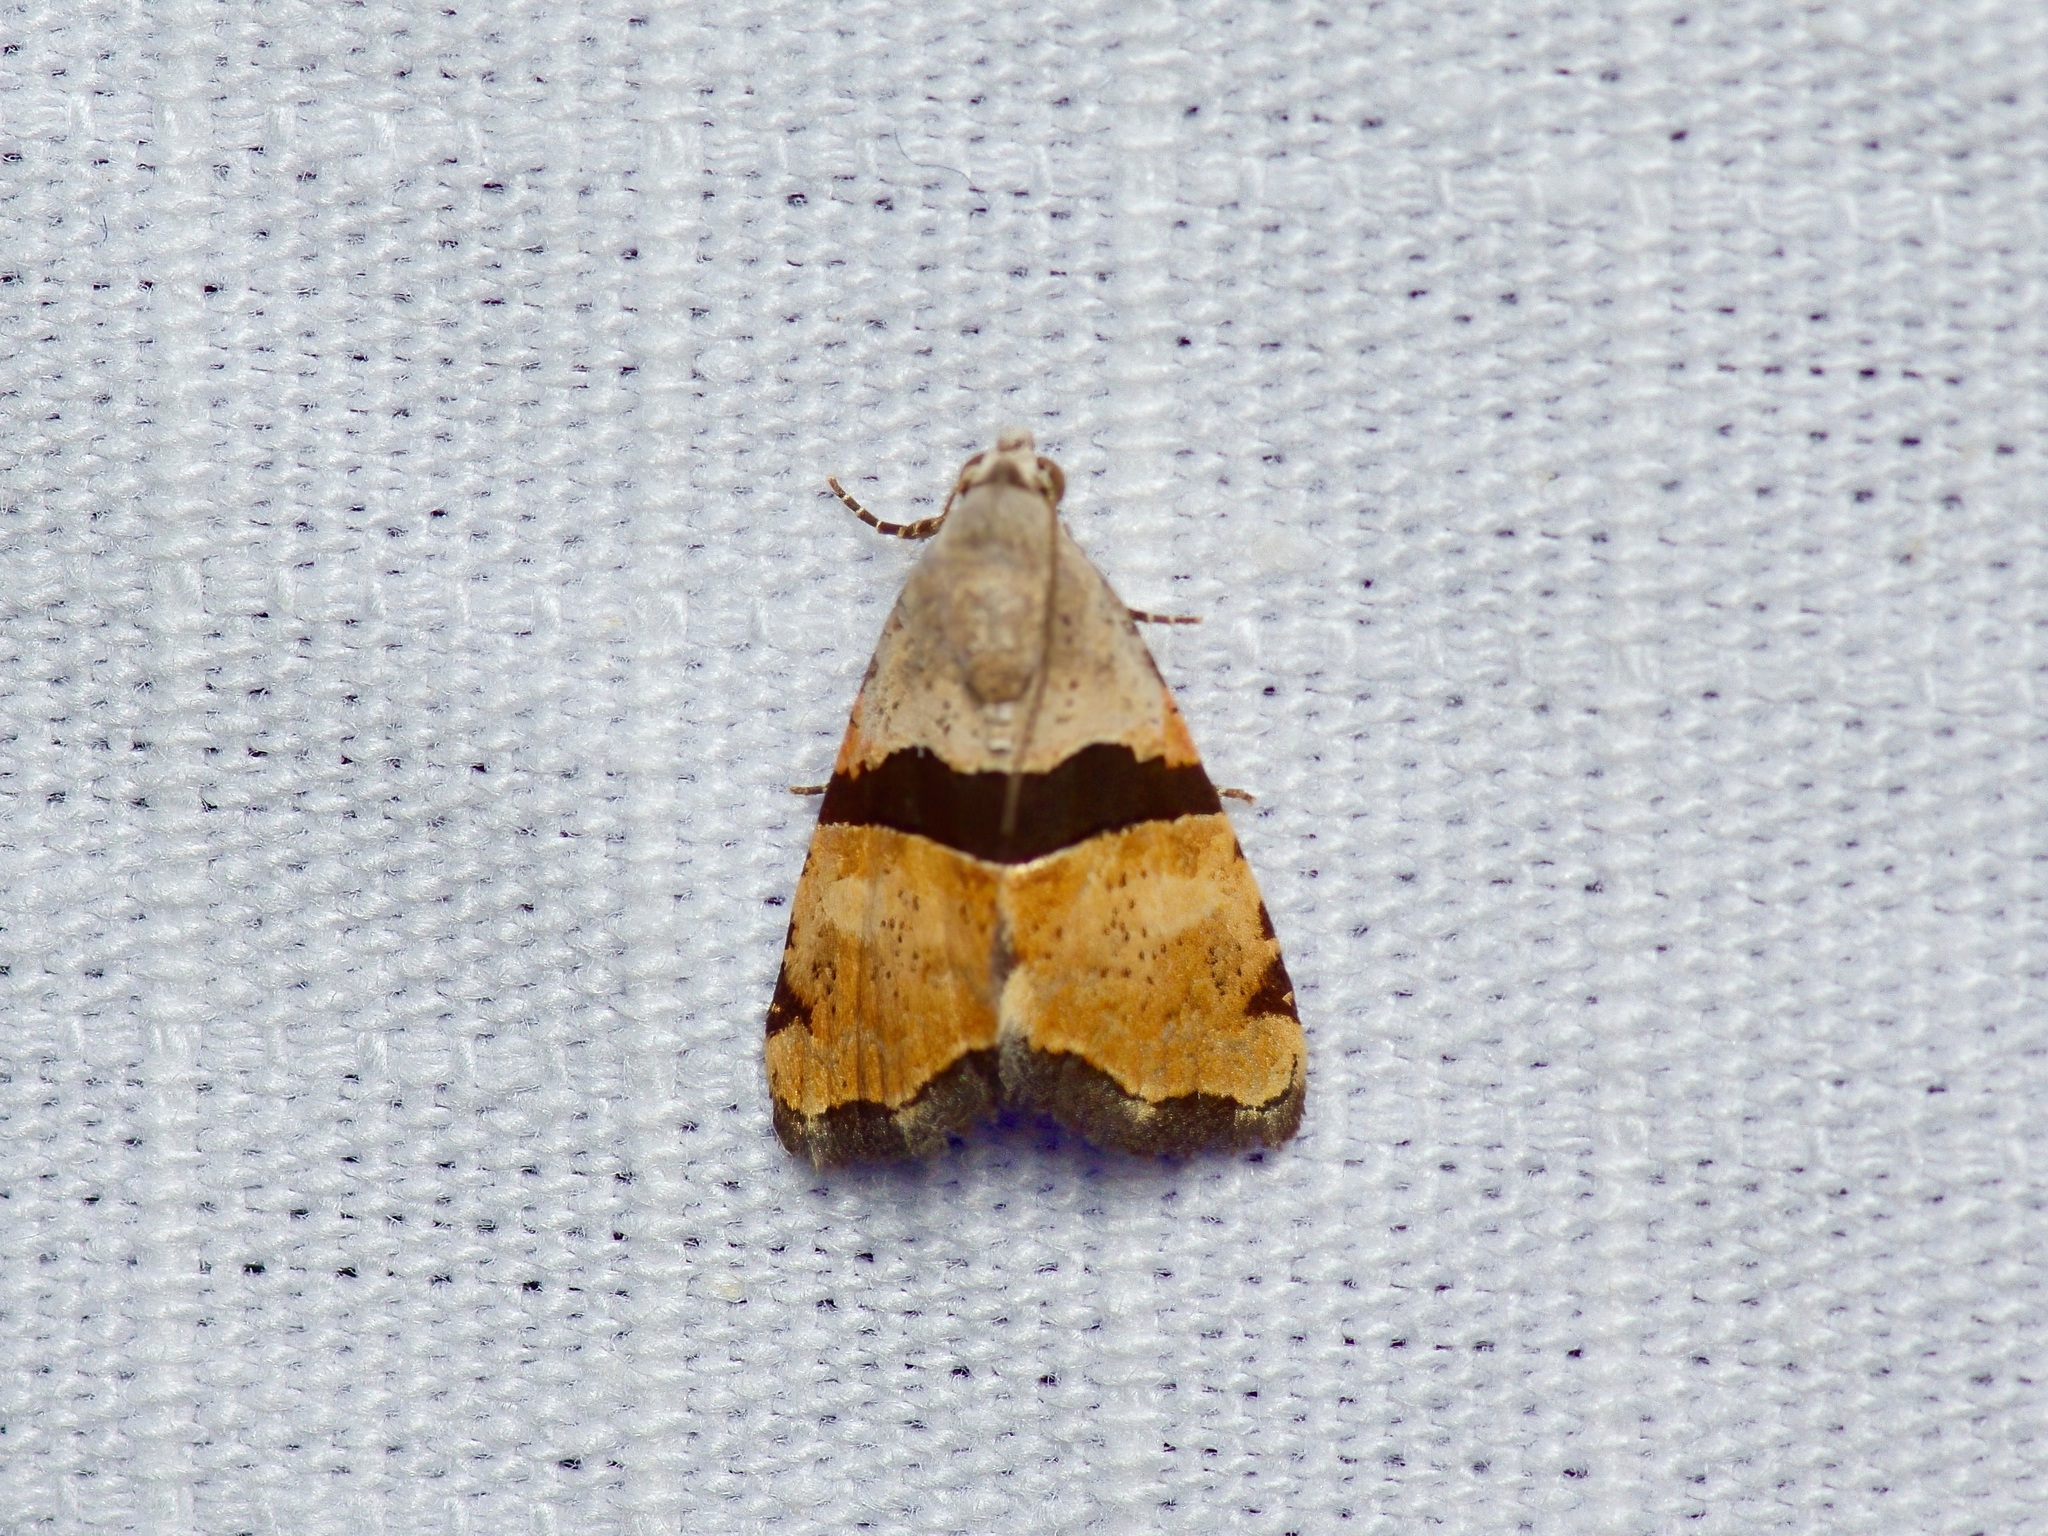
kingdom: Animalia
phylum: Arthropoda
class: Insecta
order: Lepidoptera
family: Noctuidae
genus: Cobubatha
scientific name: Cobubatha lixiva
